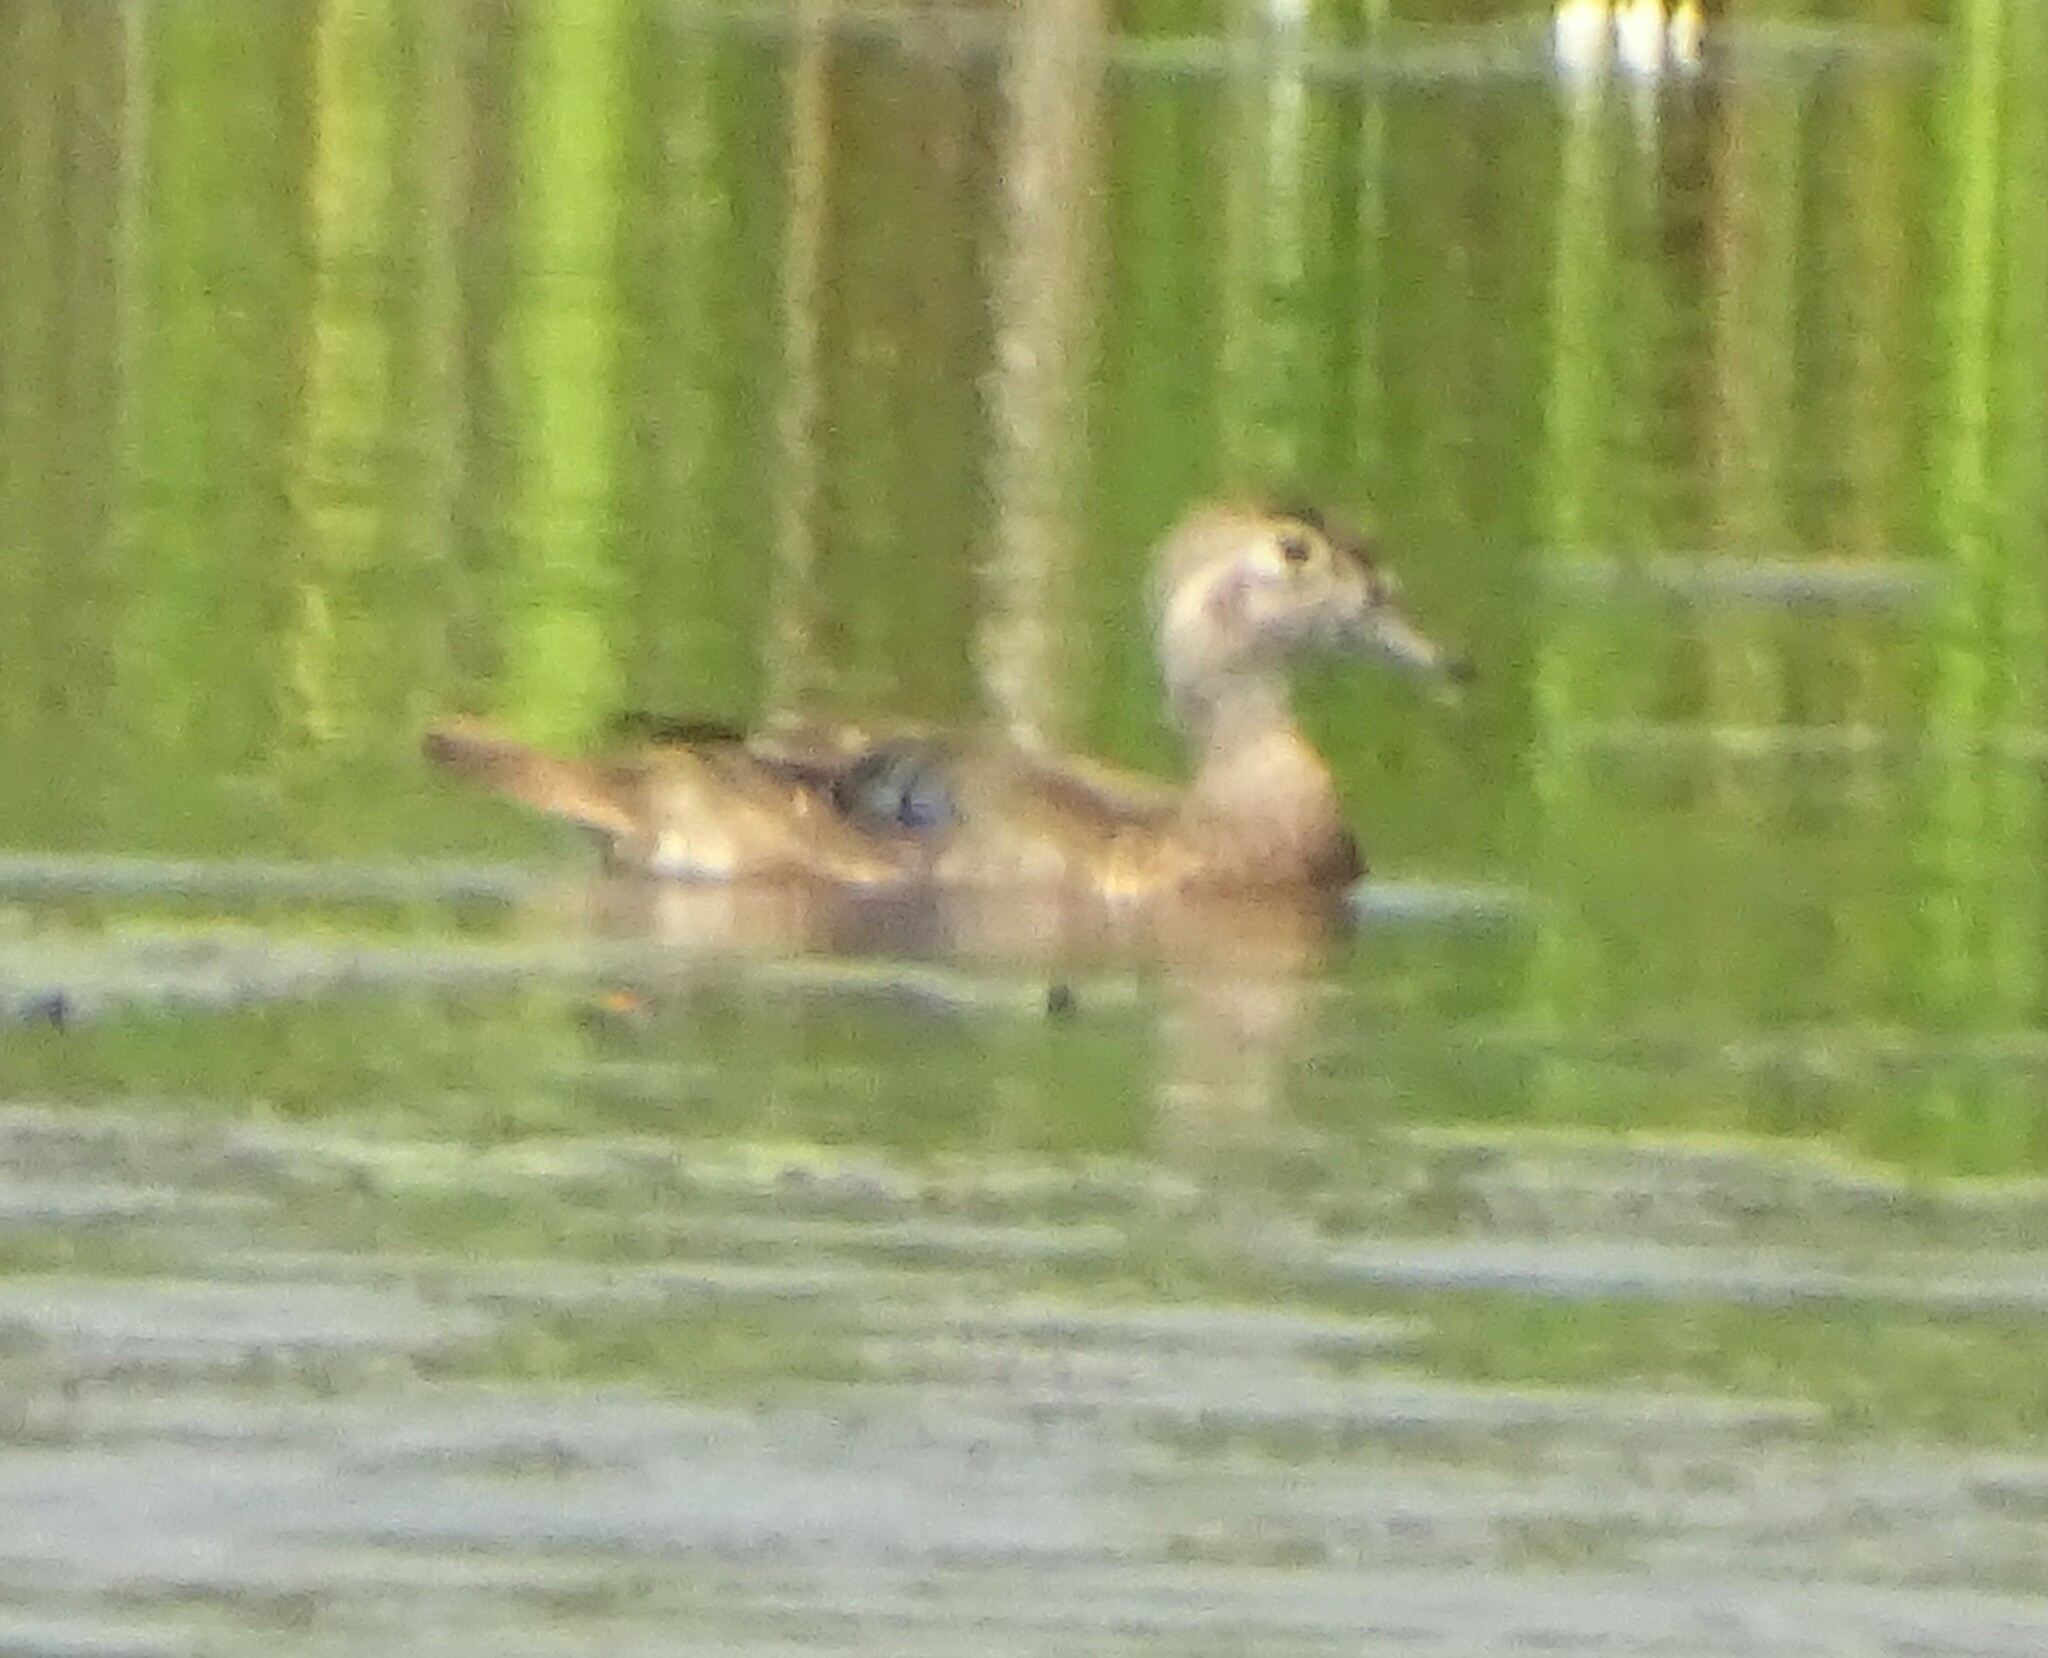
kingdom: Animalia
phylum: Chordata
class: Aves
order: Anseriformes
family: Anatidae
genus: Aix
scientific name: Aix sponsa
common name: Wood duck
